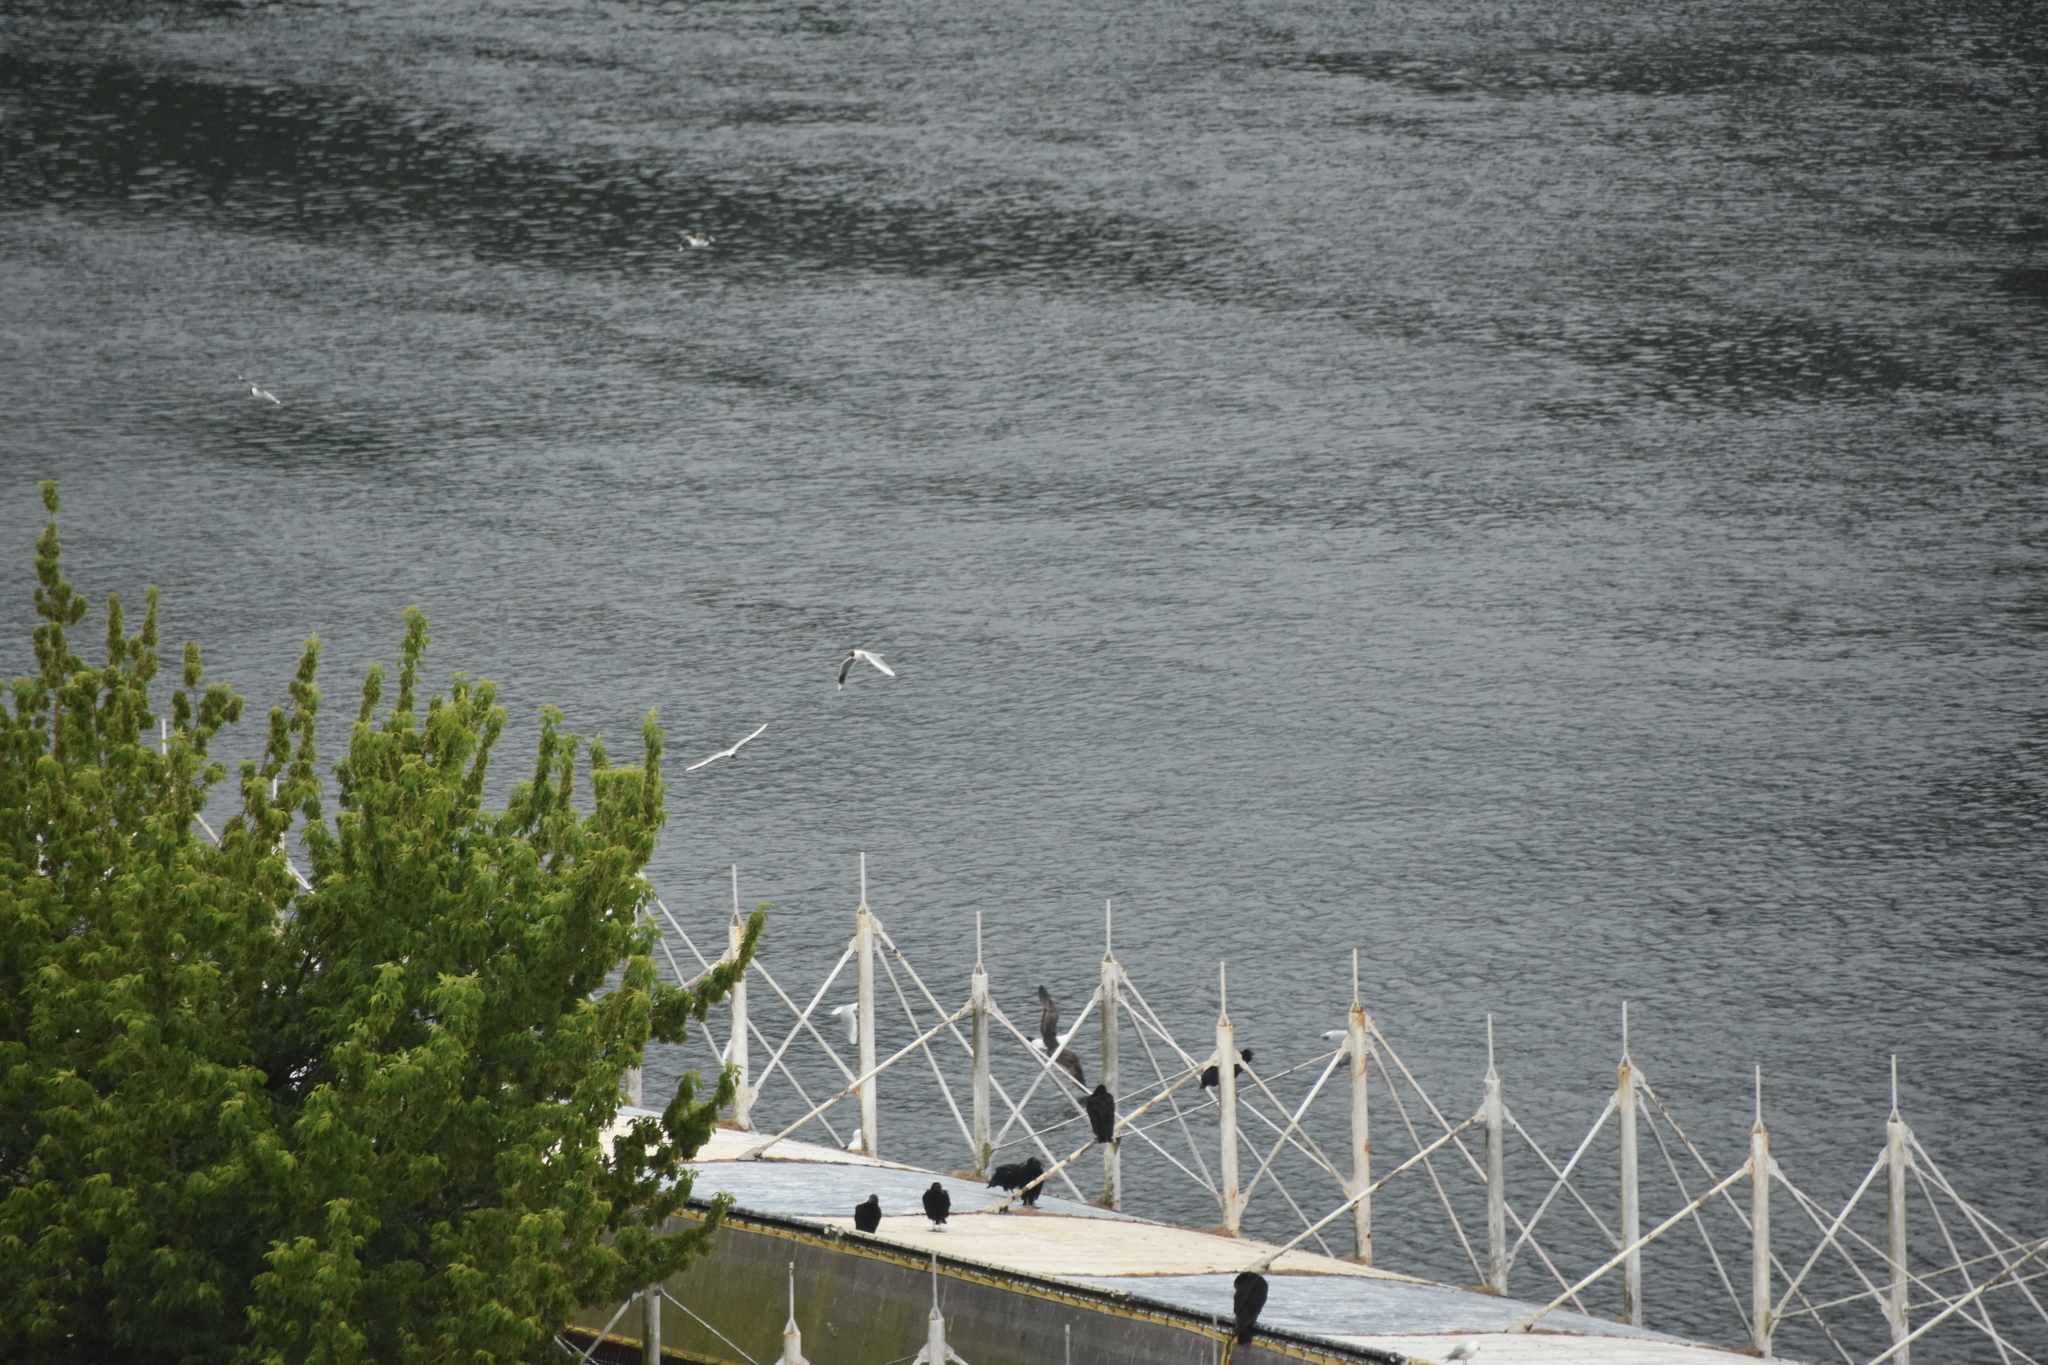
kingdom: Animalia
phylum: Chordata
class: Aves
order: Charadriiformes
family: Laridae
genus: Chroicocephalus
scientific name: Chroicocephalus maculipennis
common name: Brown-hooded gull
